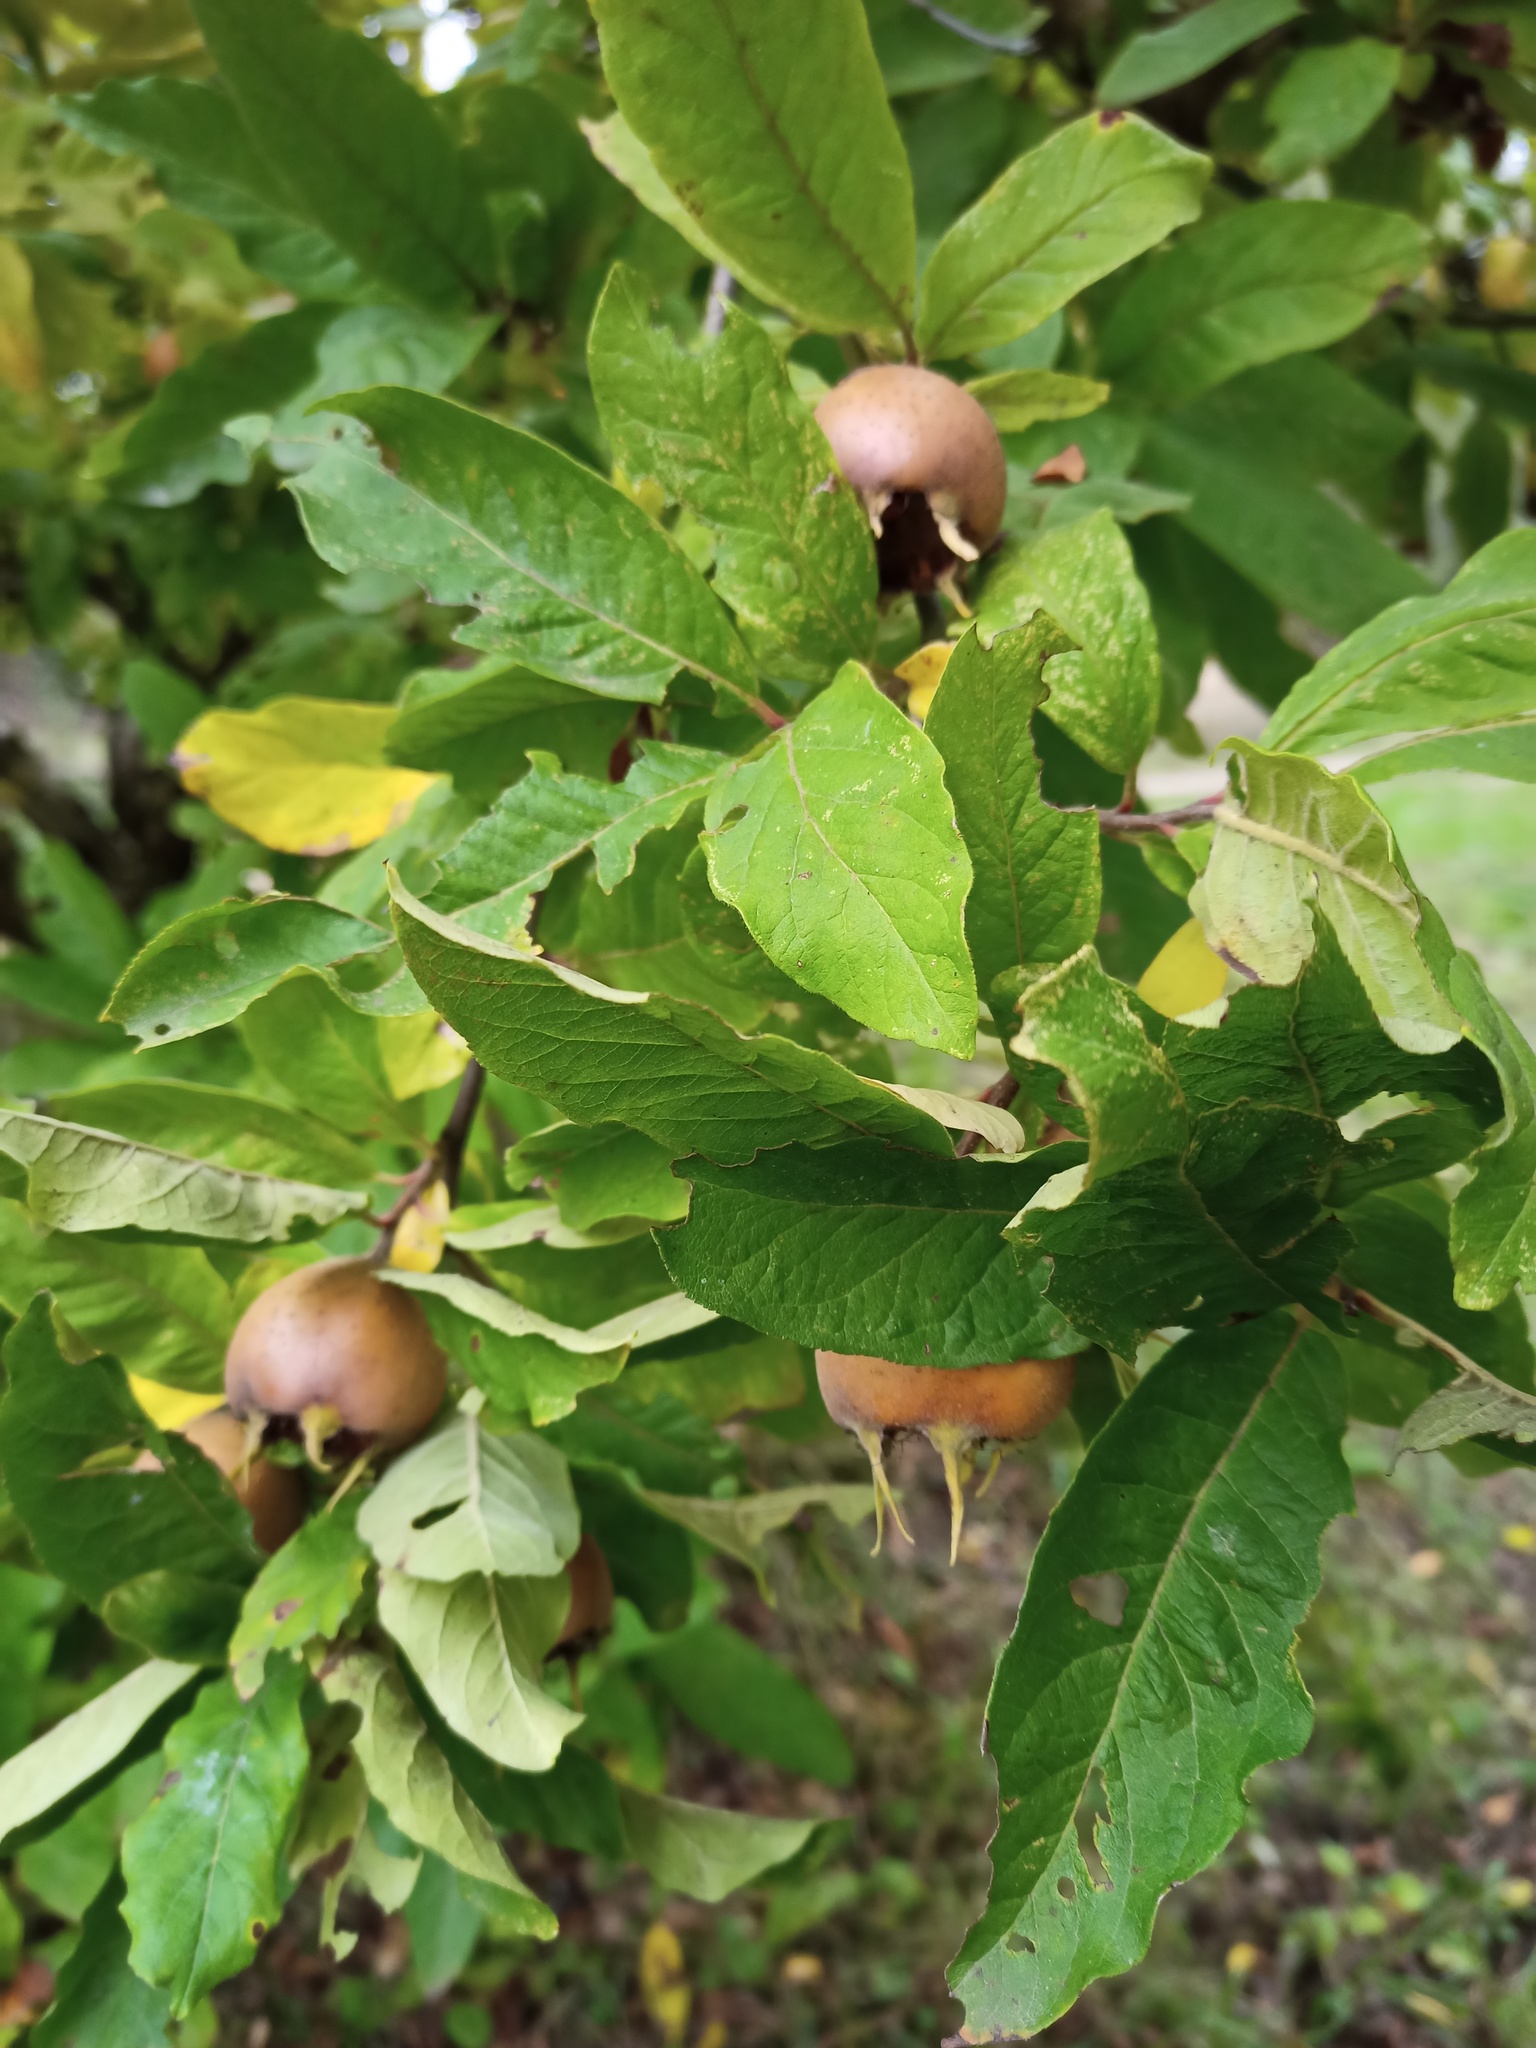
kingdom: Plantae
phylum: Tracheophyta
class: Magnoliopsida
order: Rosales
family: Rosaceae
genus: Mespilus
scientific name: Mespilus germanica
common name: Medlar
